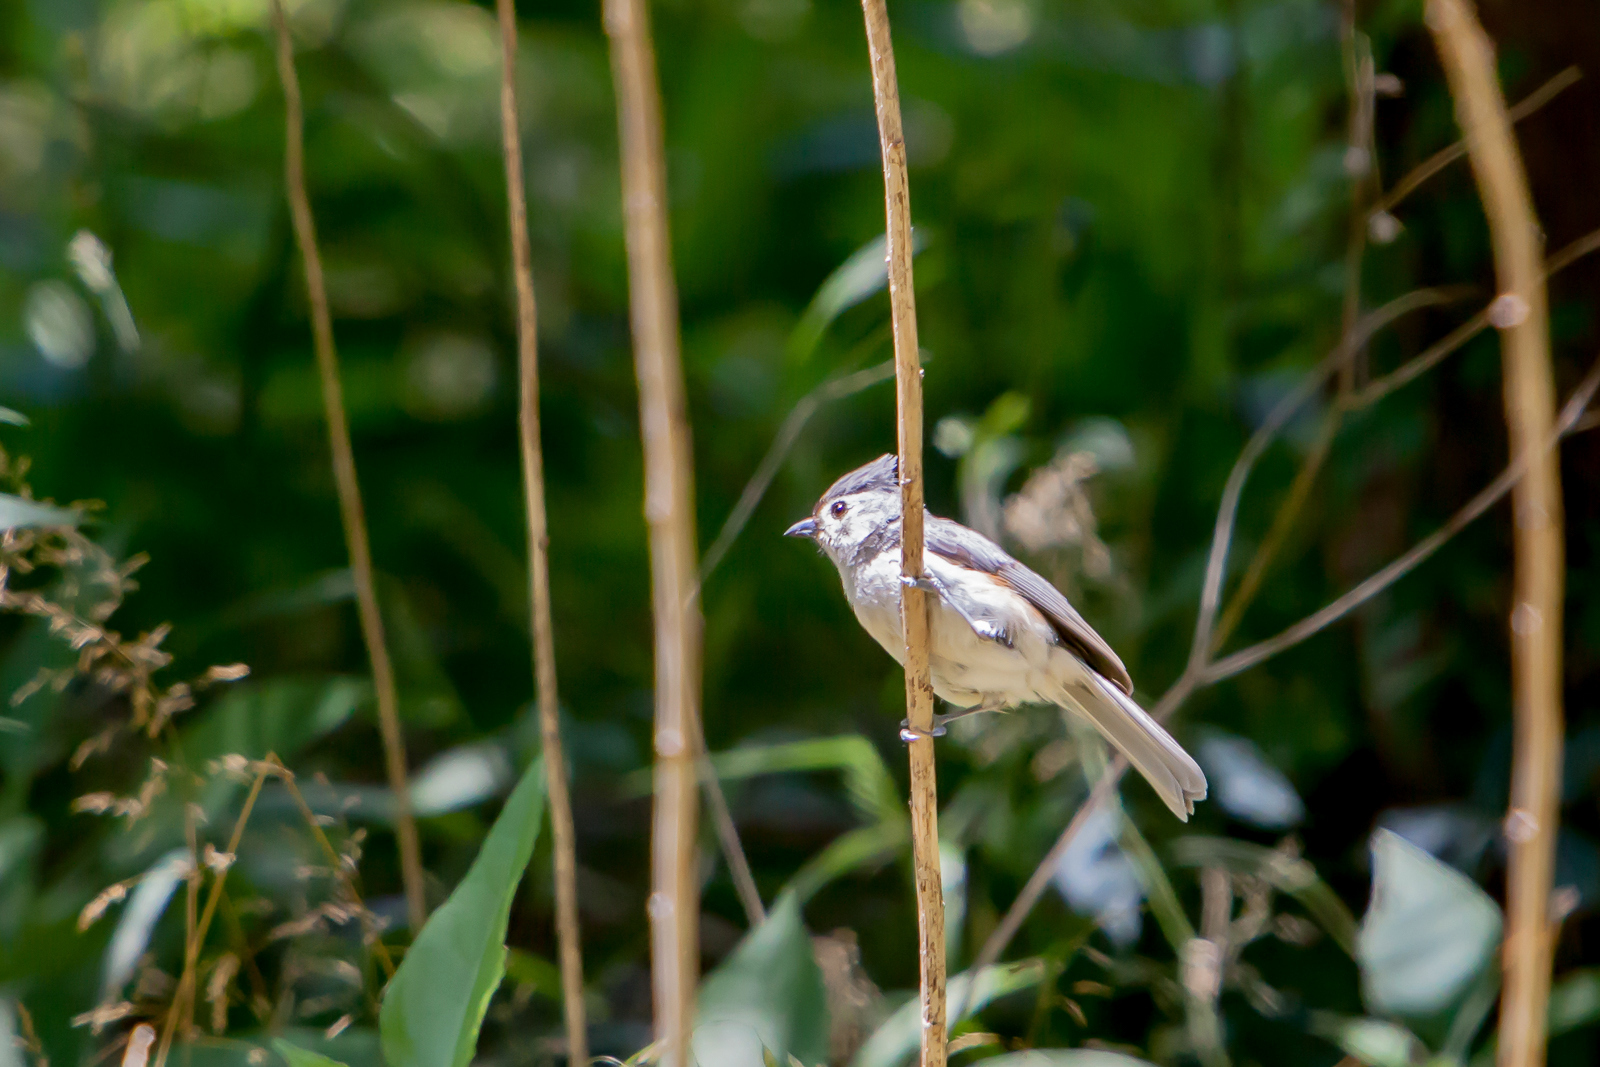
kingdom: Animalia
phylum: Chordata
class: Aves
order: Passeriformes
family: Paridae
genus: Baeolophus
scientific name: Baeolophus bicolor
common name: Tufted titmouse
